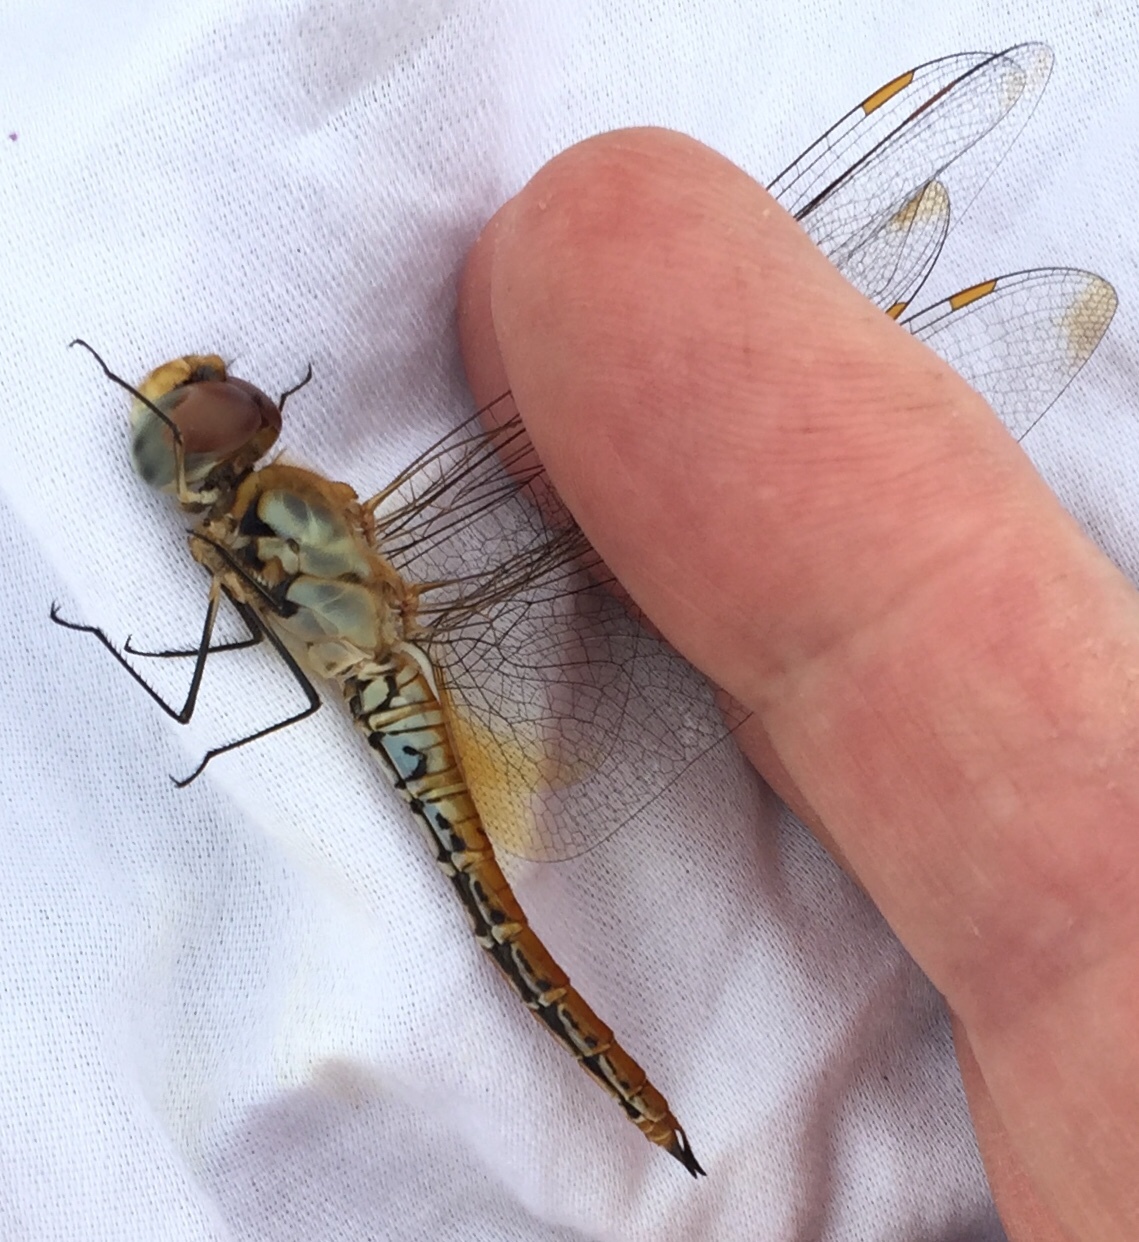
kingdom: Animalia
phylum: Arthropoda
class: Insecta
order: Odonata
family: Libellulidae
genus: Pantala
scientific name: Pantala flavescens
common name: Wandering glider
